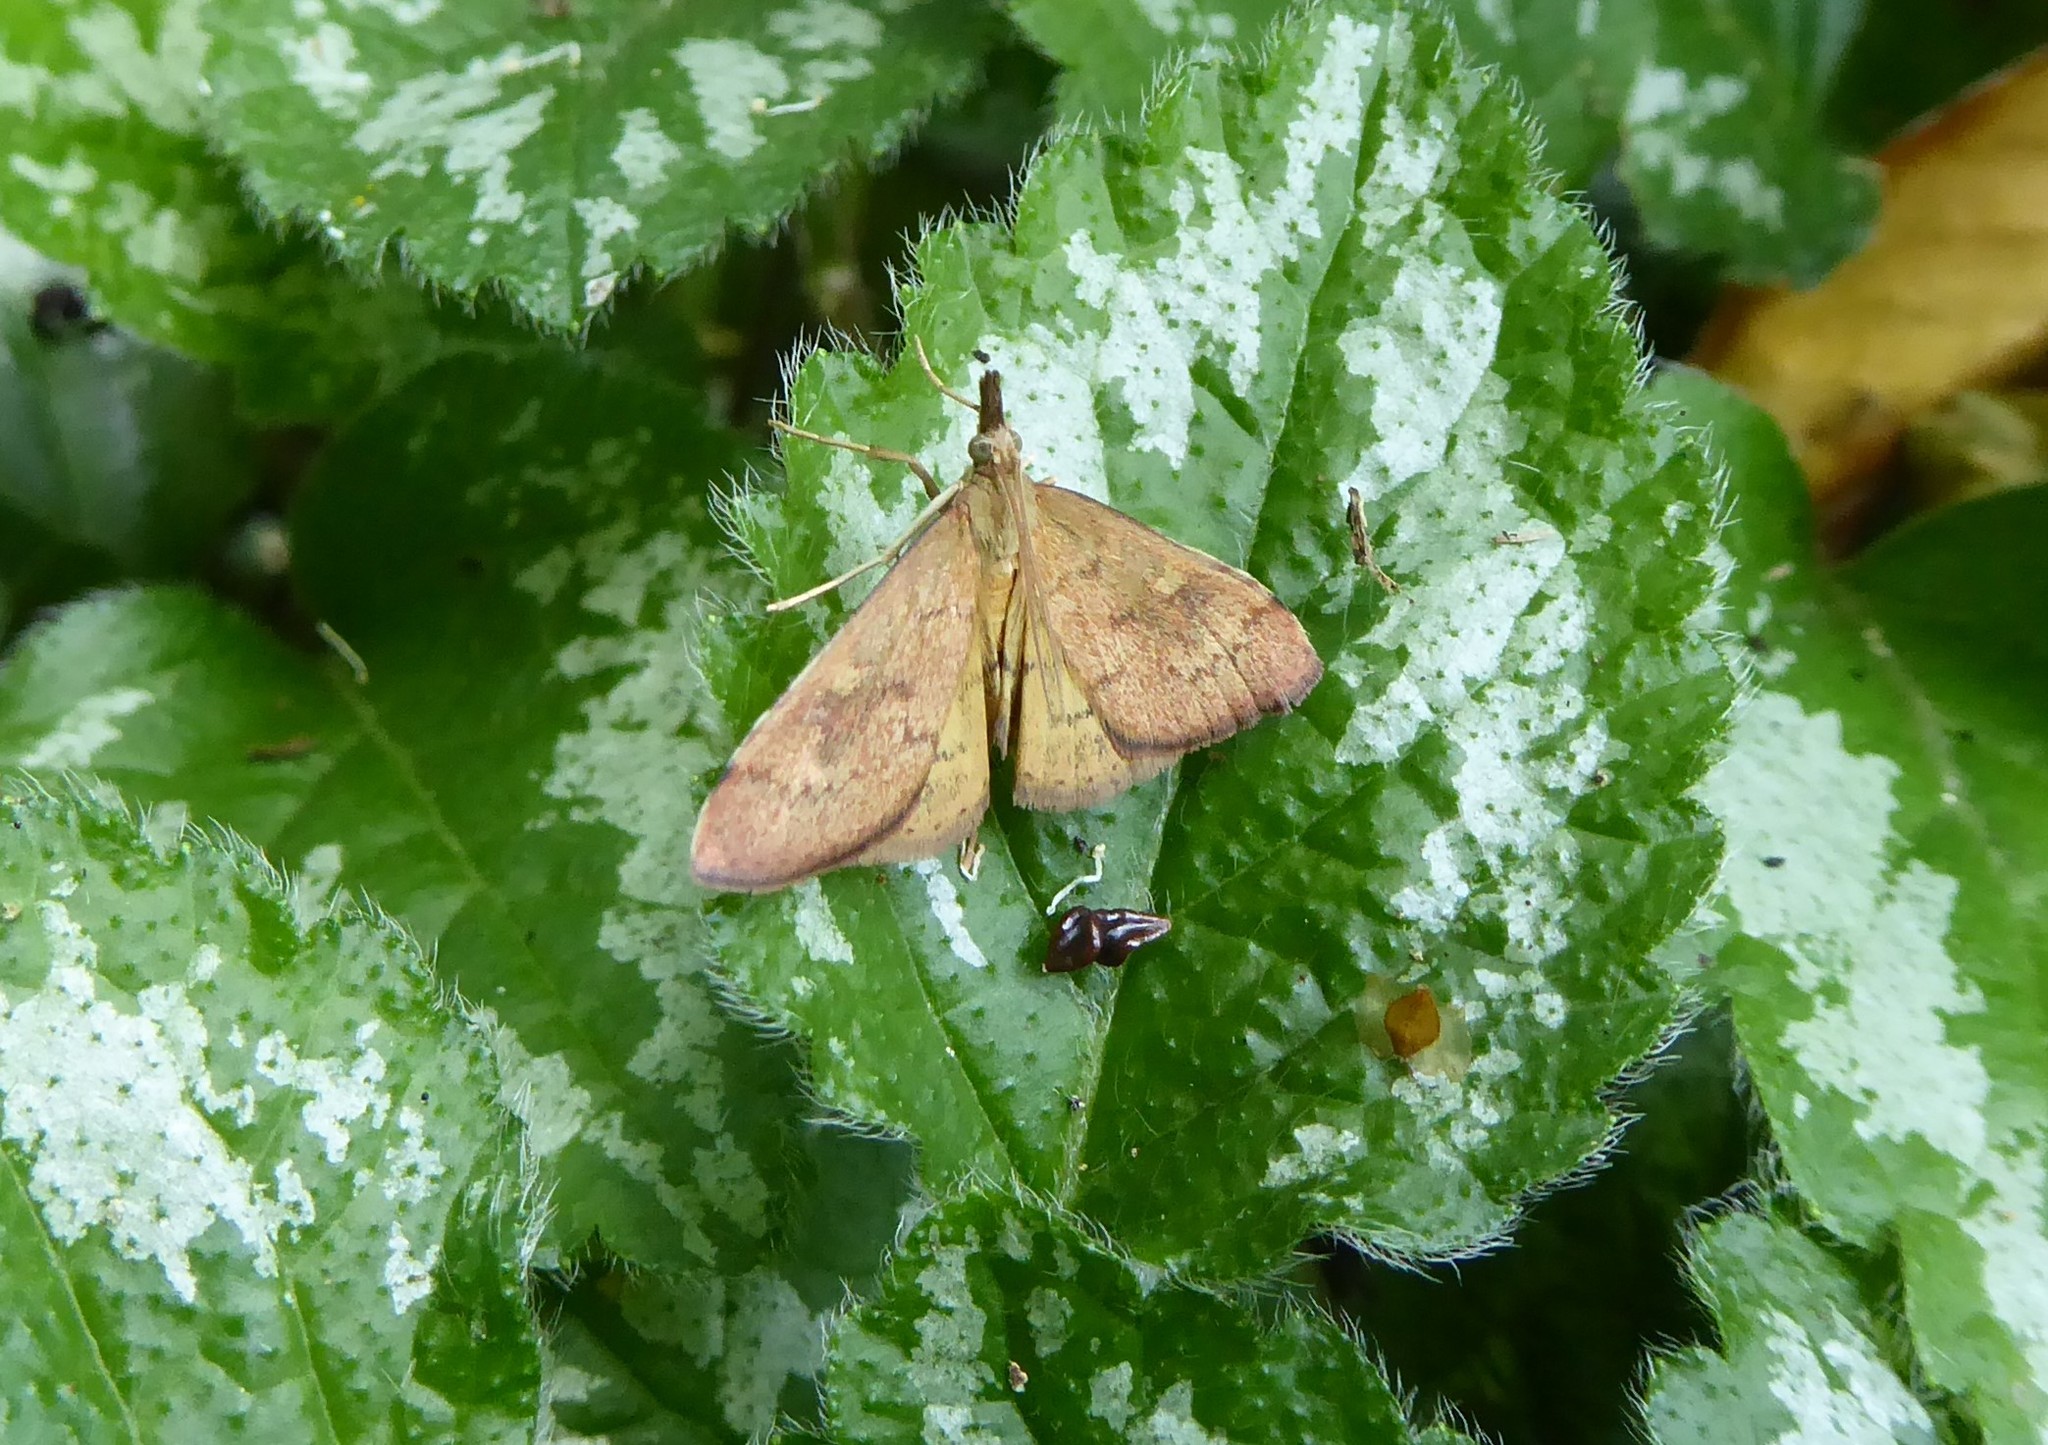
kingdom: Animalia
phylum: Arthropoda
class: Insecta
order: Lepidoptera
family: Crambidae
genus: Udea
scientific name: Udea Mnesictena flavidalis
